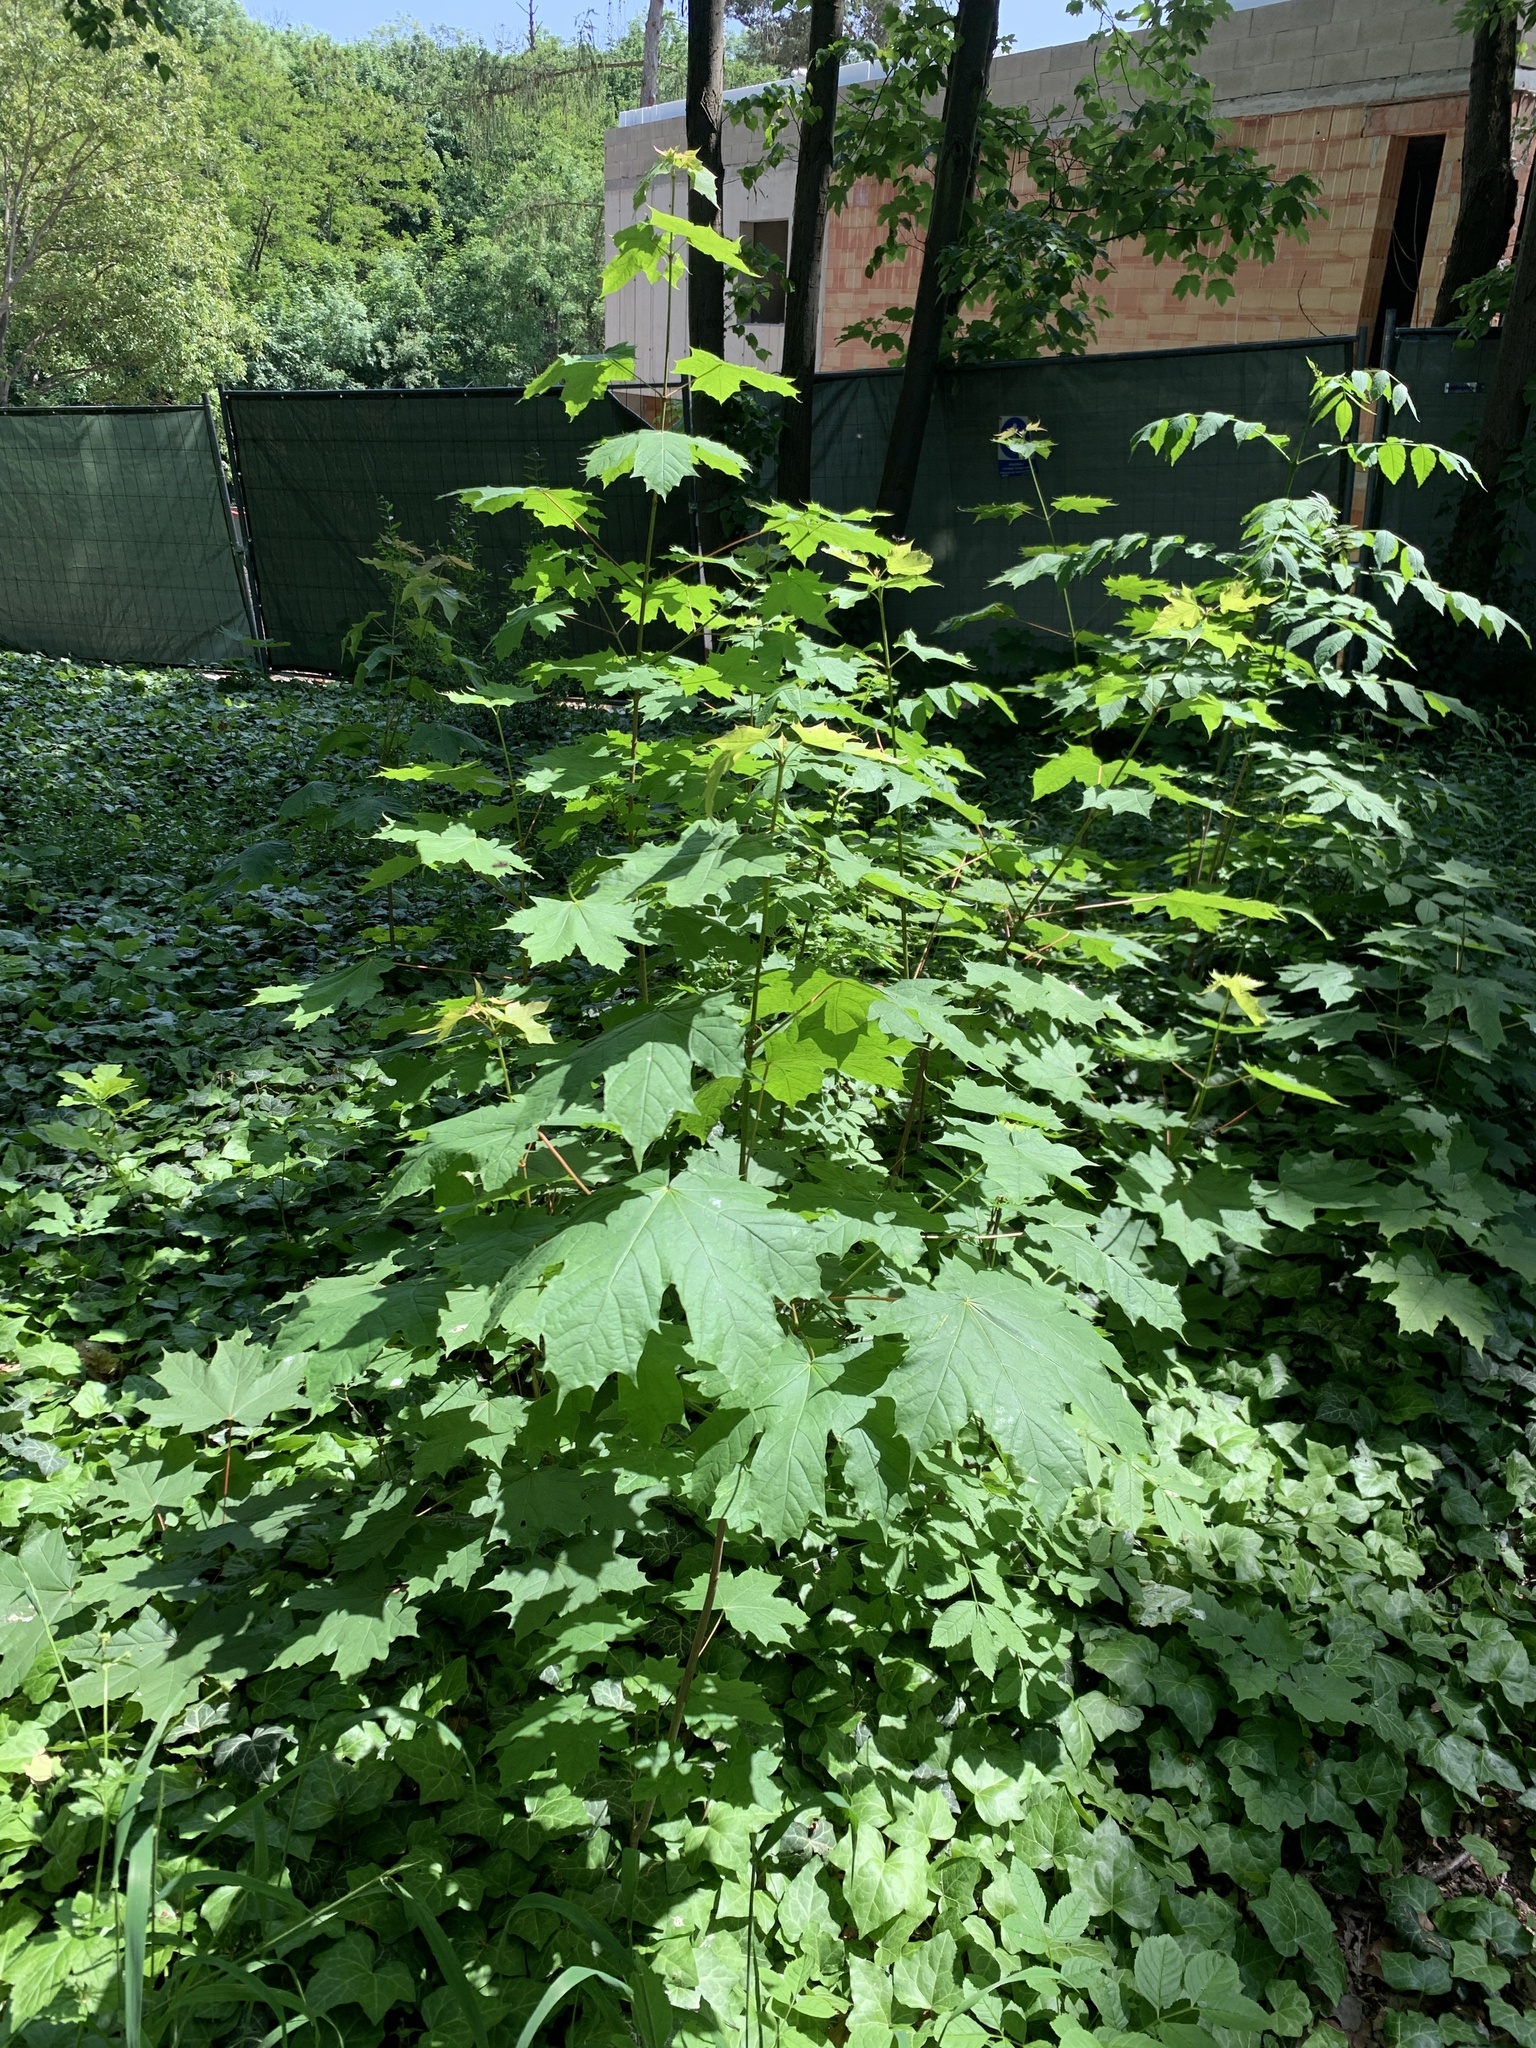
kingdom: Plantae
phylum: Tracheophyta
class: Magnoliopsida
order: Sapindales
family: Sapindaceae
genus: Acer
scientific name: Acer platanoides
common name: Norway maple
